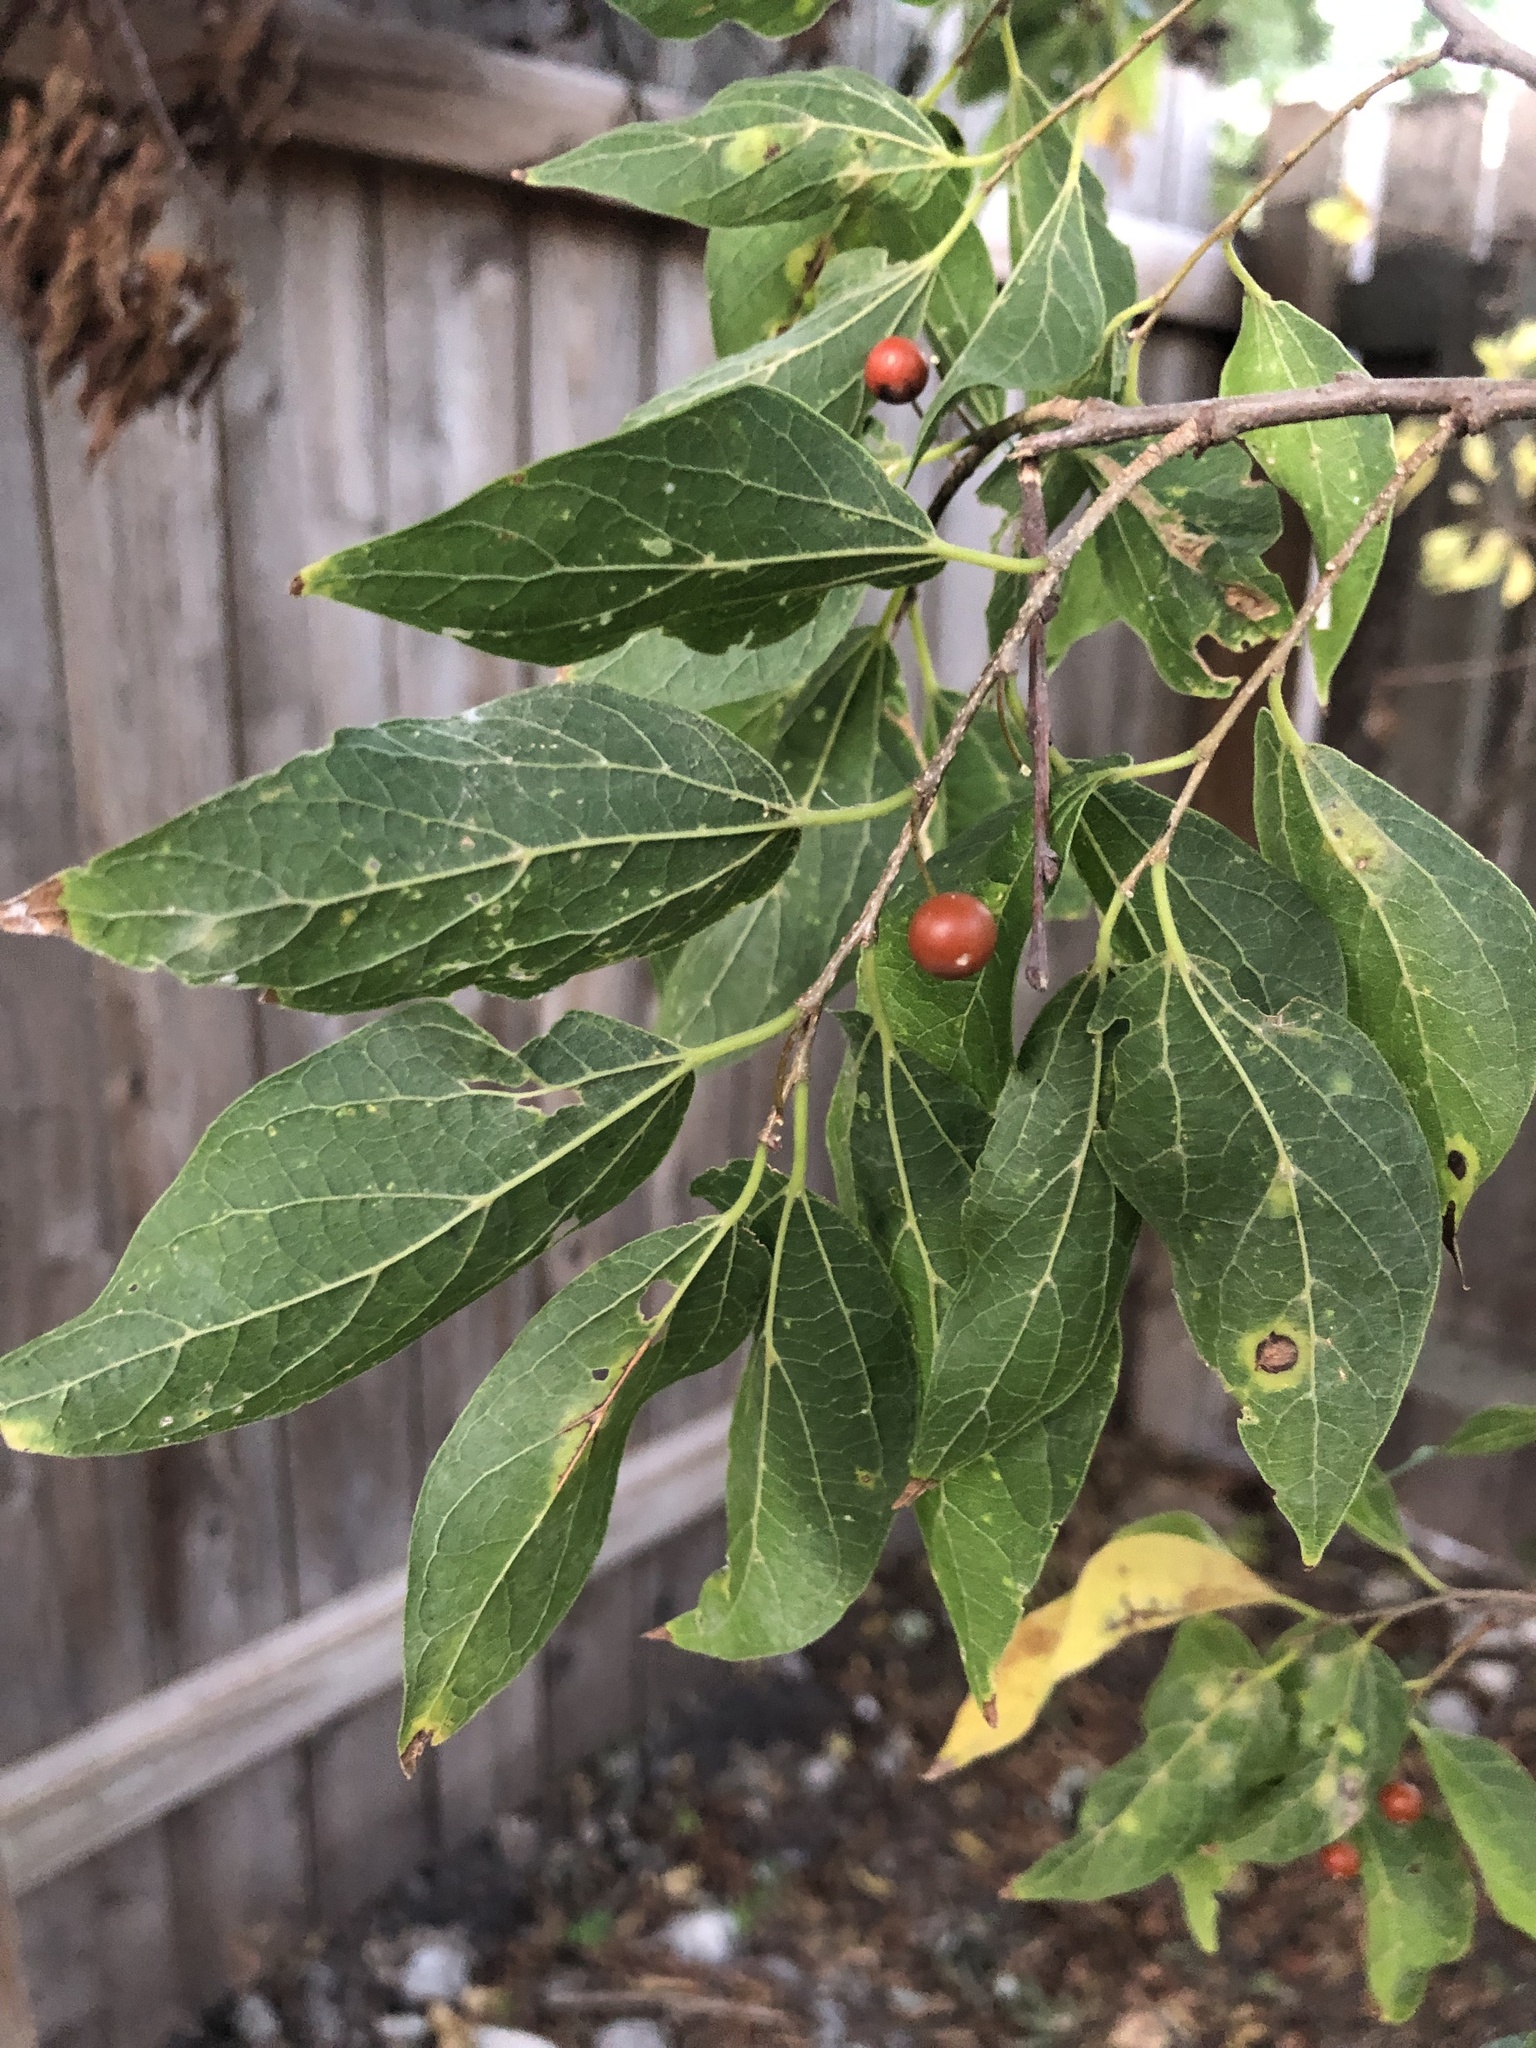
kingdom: Plantae
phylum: Tracheophyta
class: Magnoliopsida
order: Rosales
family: Cannabaceae
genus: Celtis
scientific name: Celtis laevigata
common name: Sugarberry
